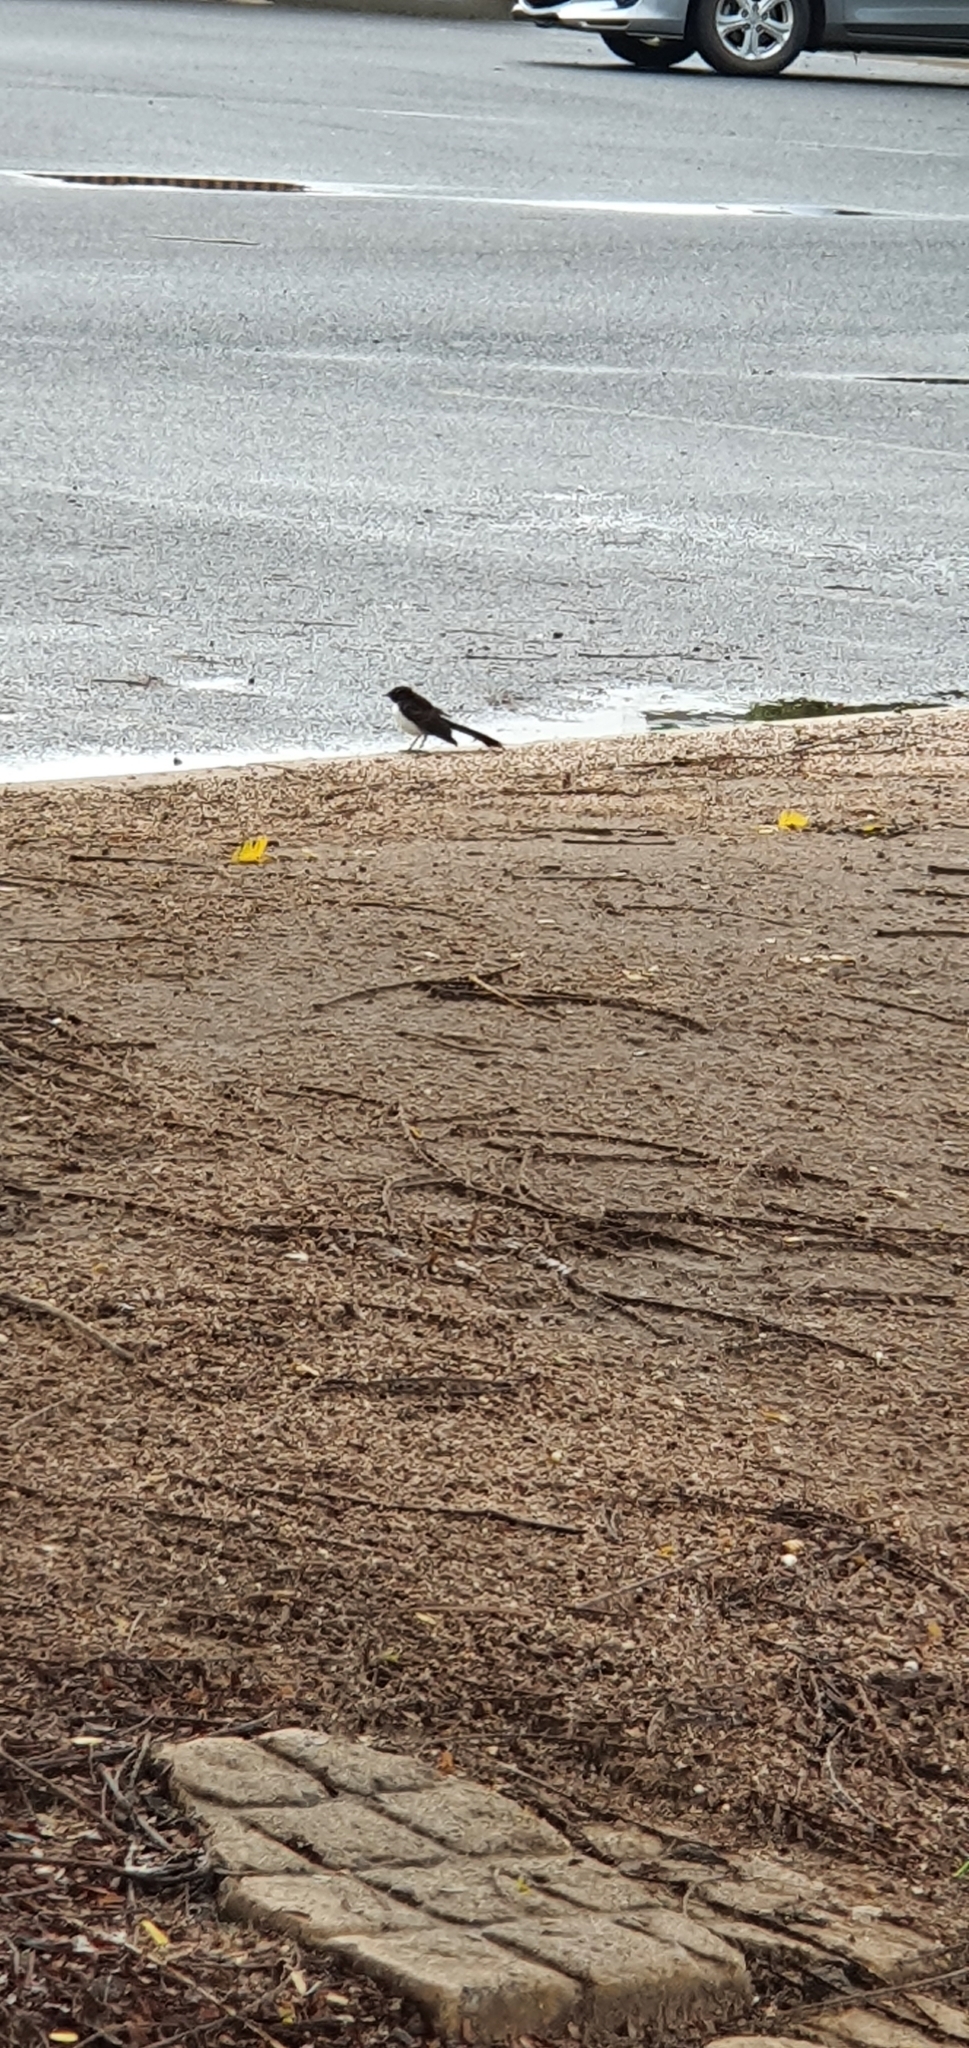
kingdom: Animalia
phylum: Chordata
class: Aves
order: Passeriformes
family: Rhipiduridae
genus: Rhipidura
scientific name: Rhipidura leucophrys
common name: Willie wagtail
